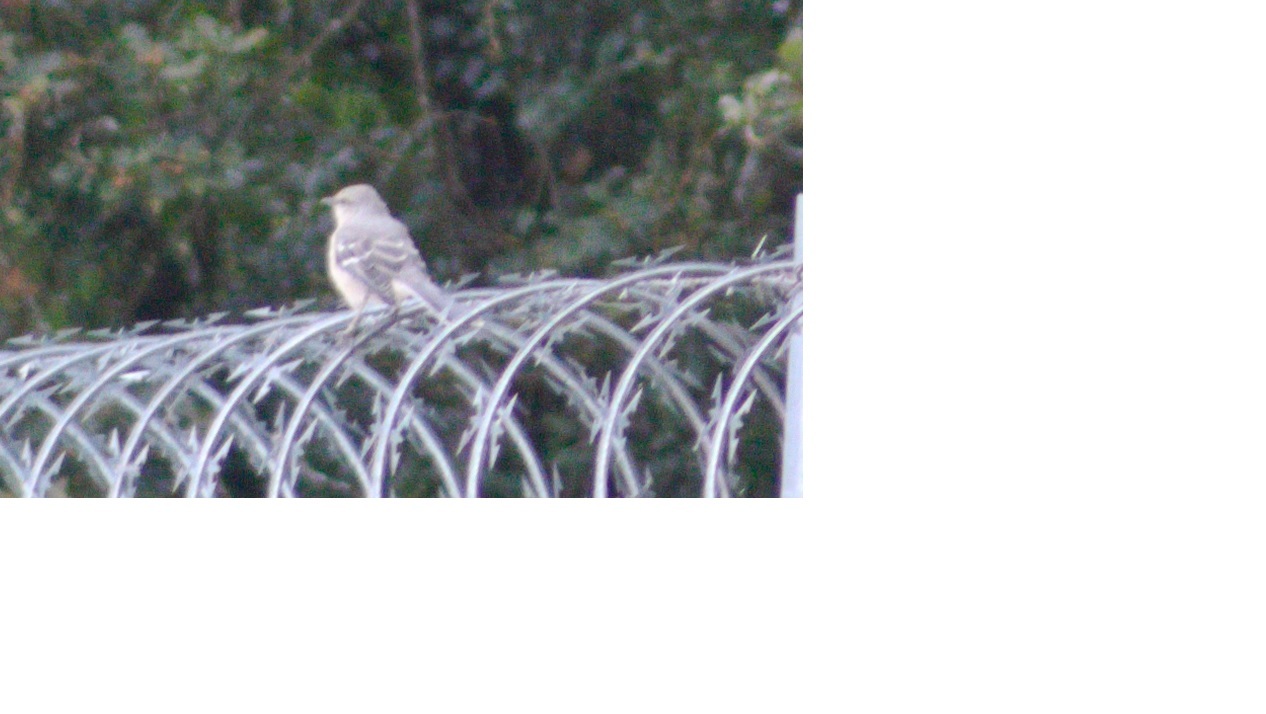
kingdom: Animalia
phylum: Chordata
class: Aves
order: Passeriformes
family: Mimidae
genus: Mimus
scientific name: Mimus gilvus
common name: Tropical mockingbird
